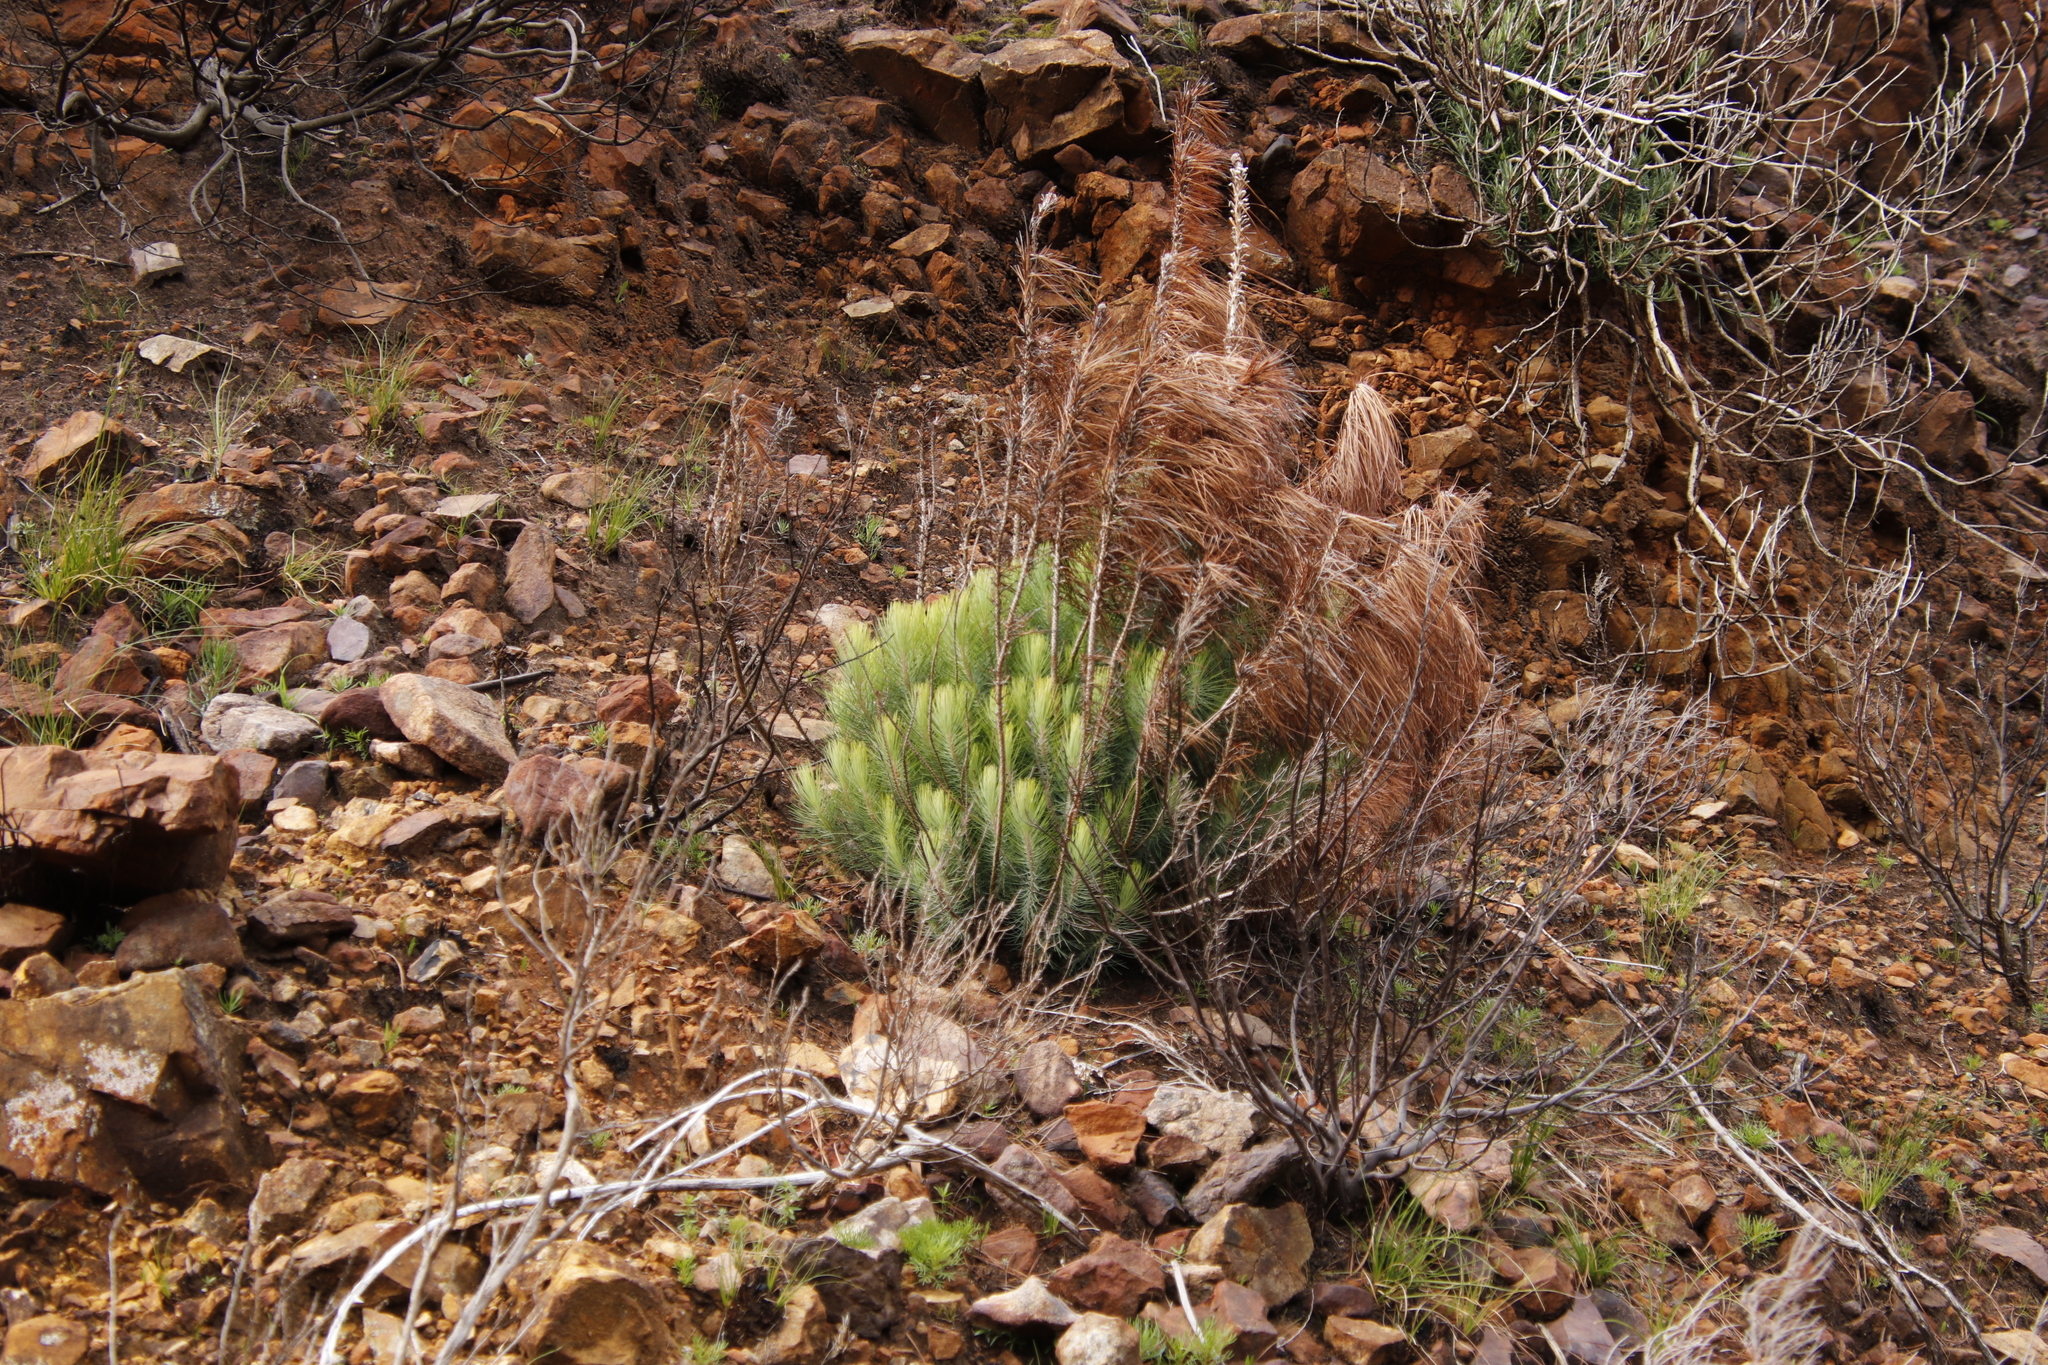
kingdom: Plantae
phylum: Tracheophyta
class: Pinopsida
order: Pinales
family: Pinaceae
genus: Pinus
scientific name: Pinus canariensis
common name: Canary islands pine
